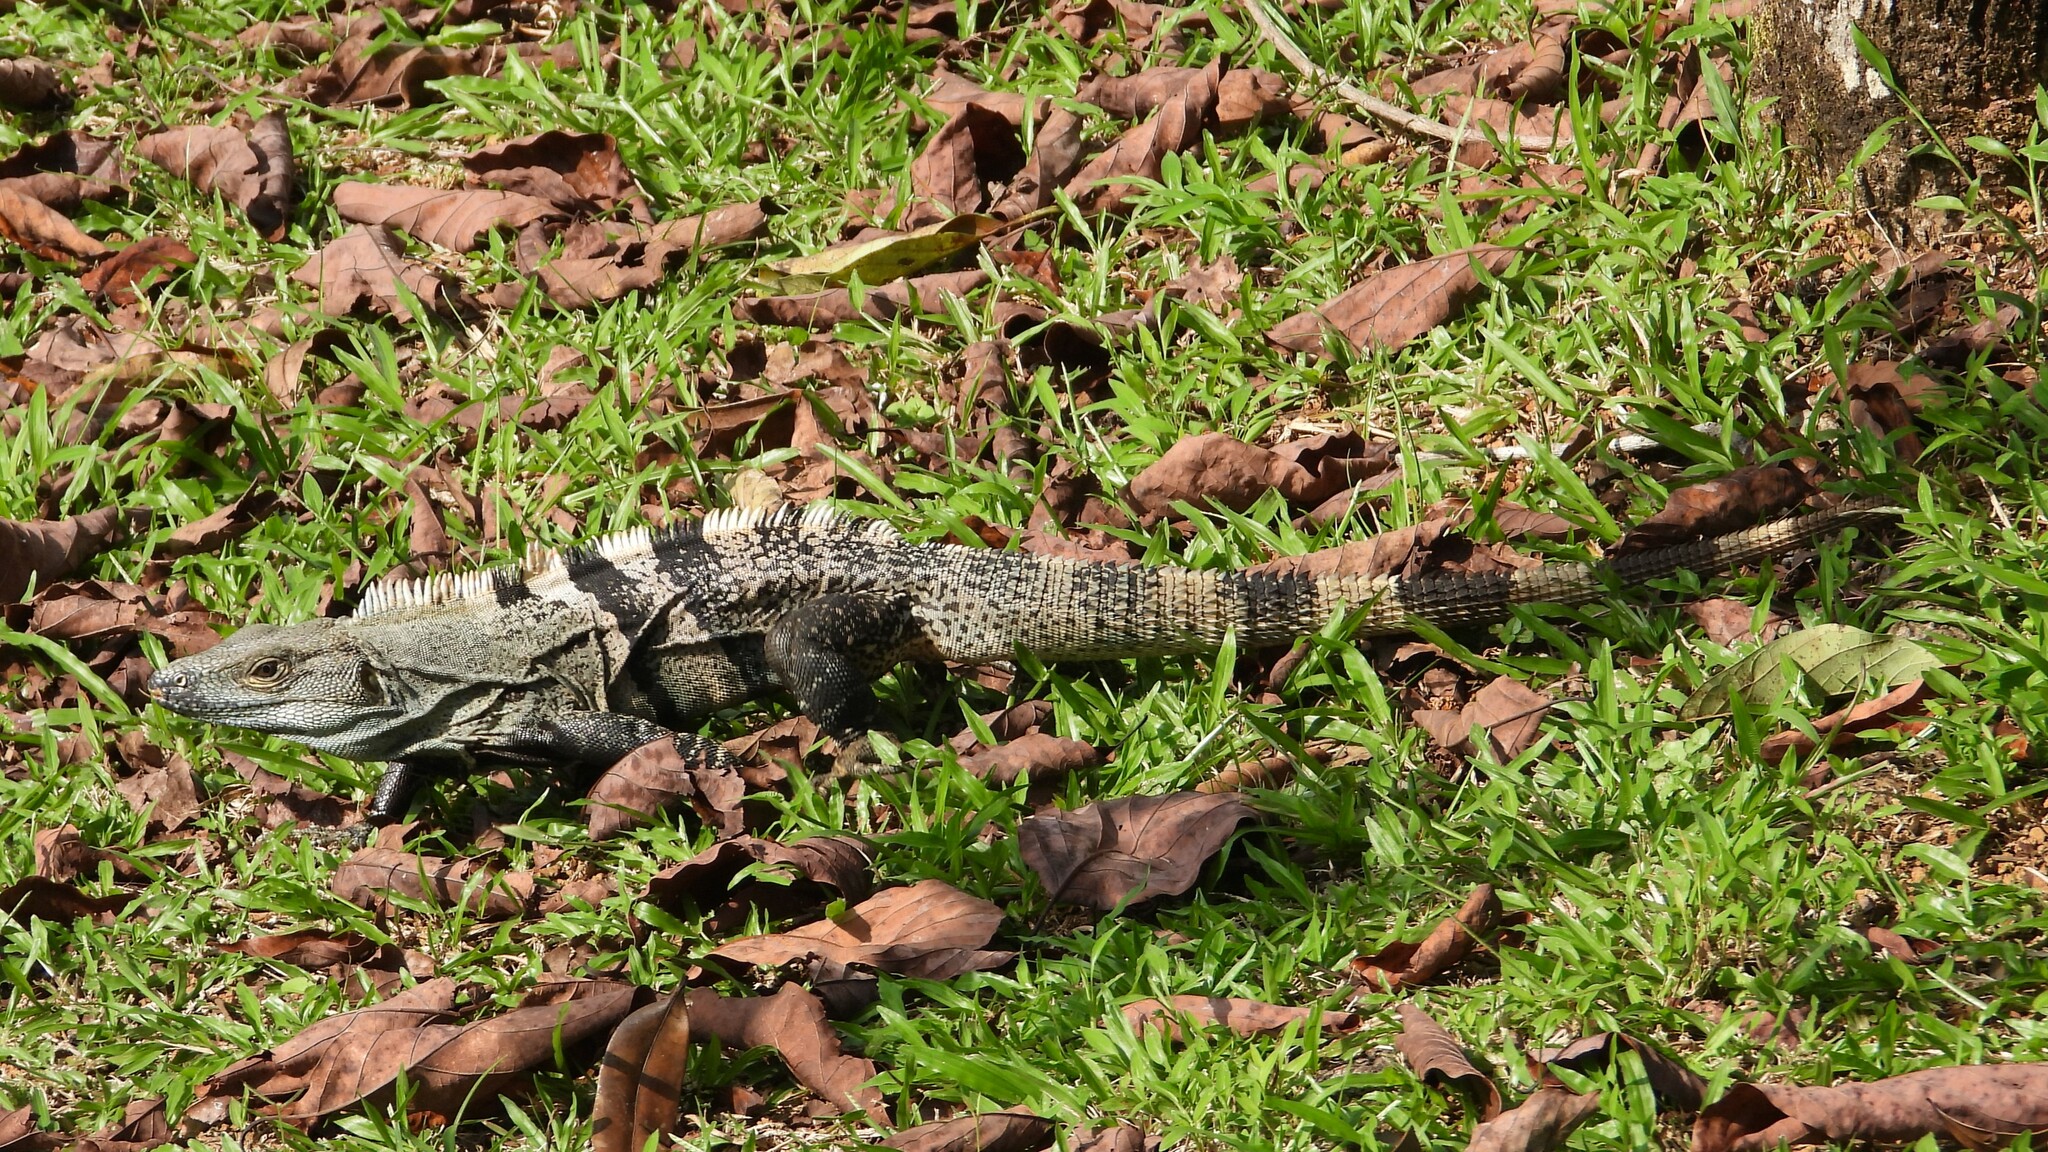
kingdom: Animalia
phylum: Chordata
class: Squamata
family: Iguanidae
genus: Ctenosaura
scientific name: Ctenosaura similis
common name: Black spiny-tailed iguana
